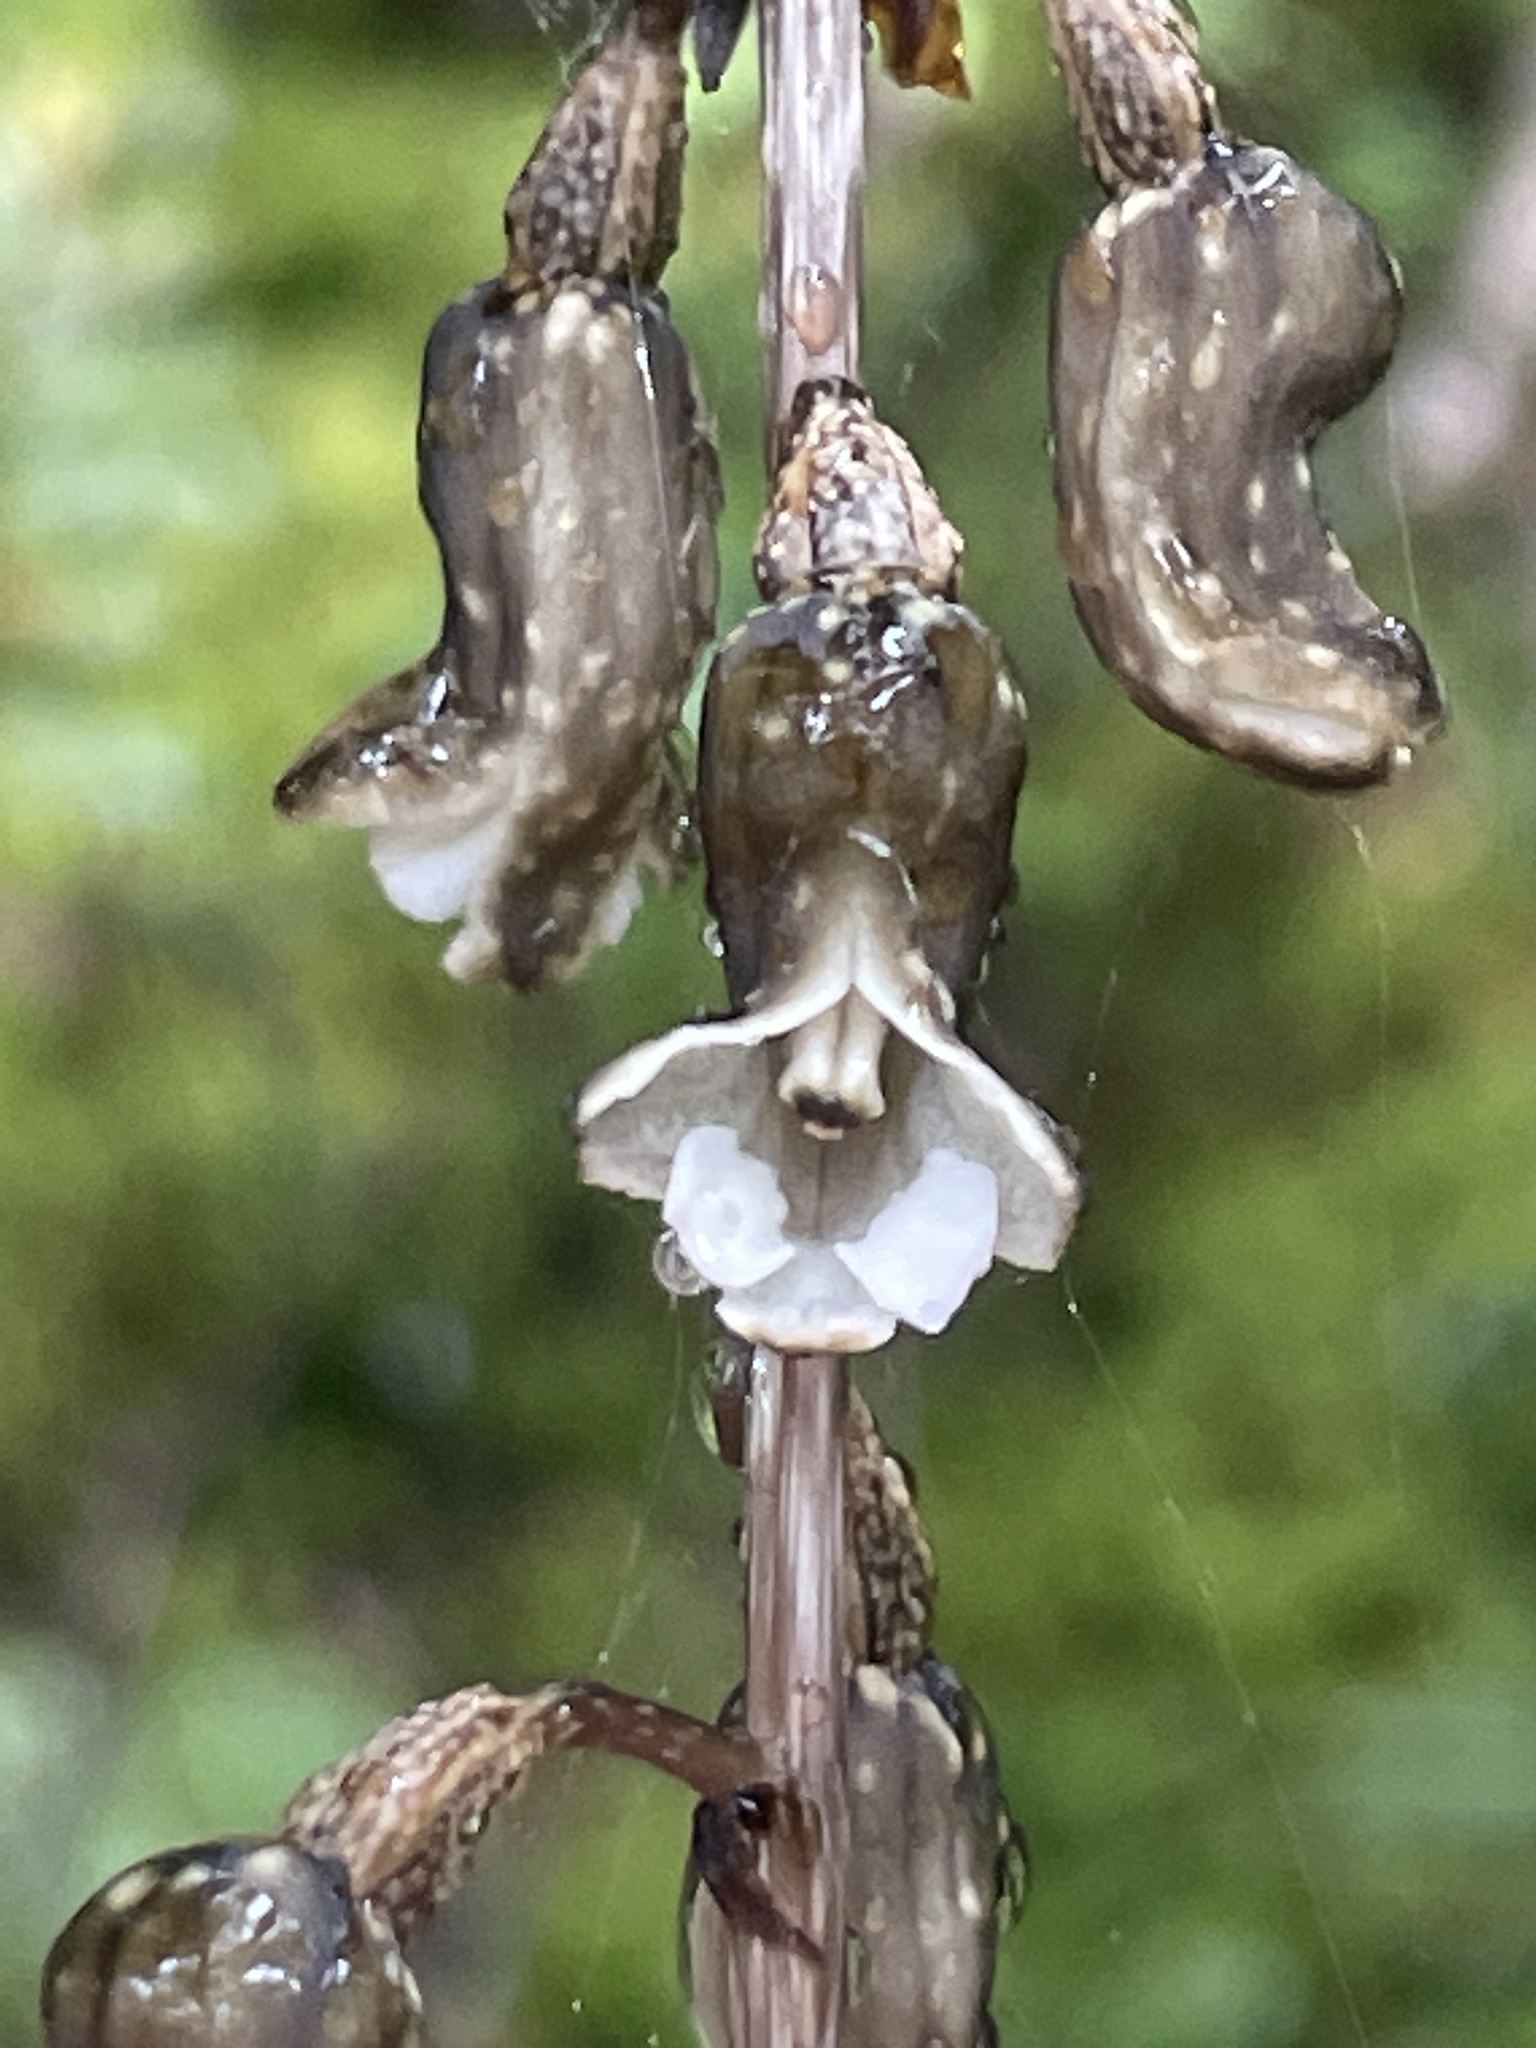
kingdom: Plantae
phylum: Tracheophyta
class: Liliopsida
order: Asparagales
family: Orchidaceae
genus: Gastrodia
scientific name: Gastrodia cunninghamii
